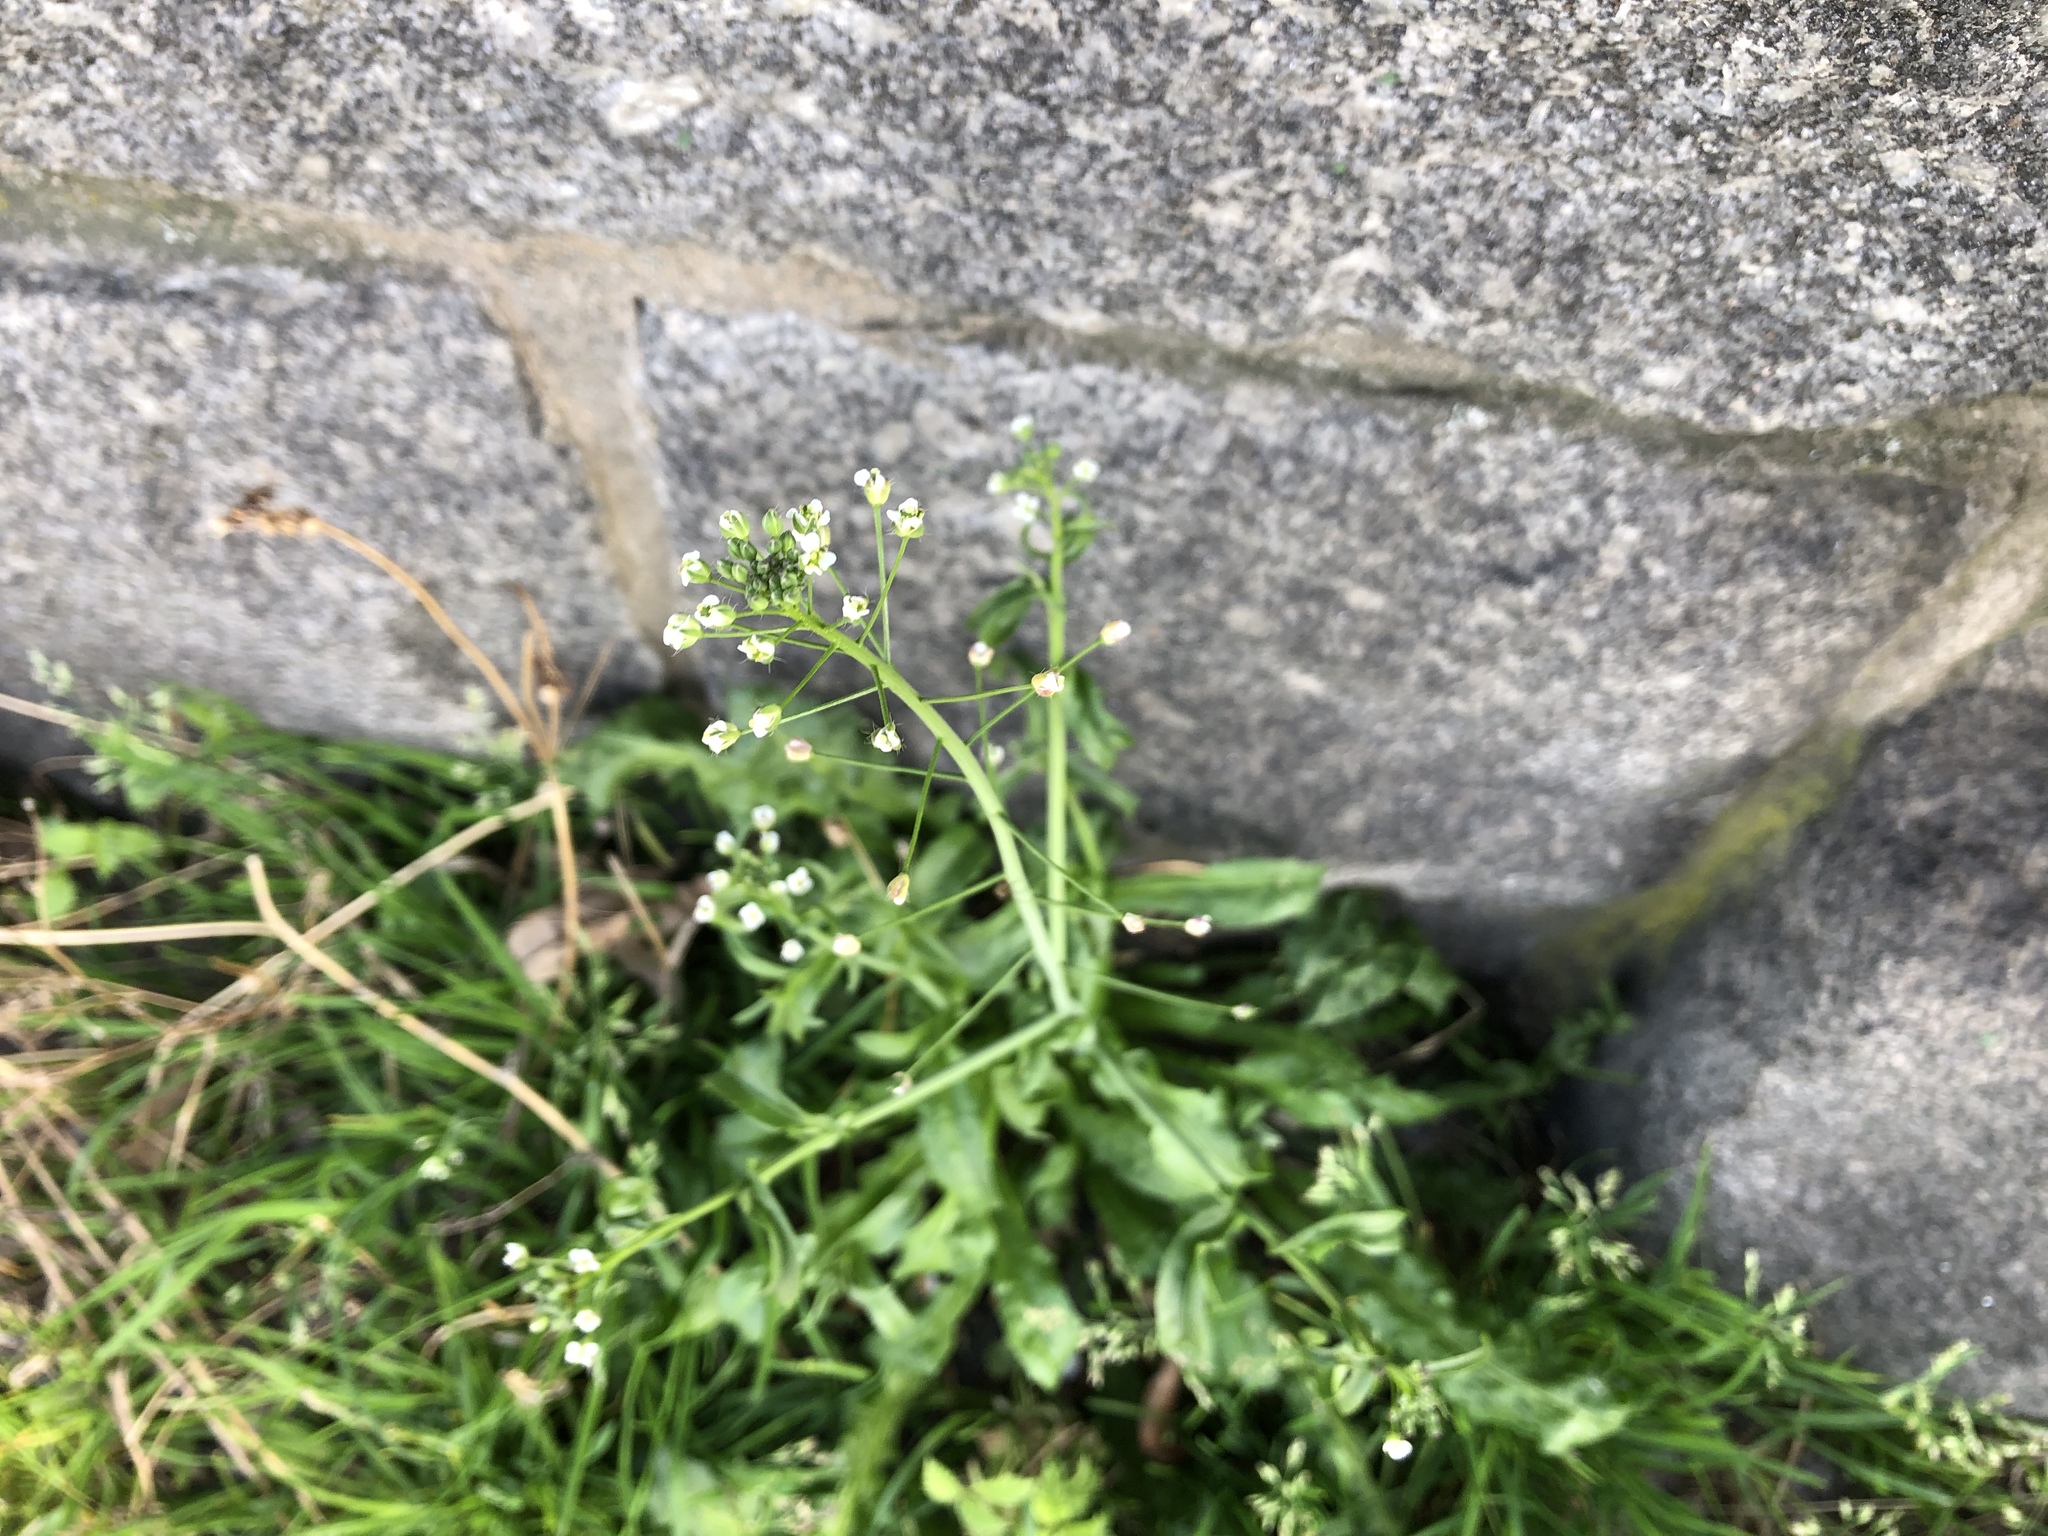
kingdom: Plantae
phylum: Tracheophyta
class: Magnoliopsida
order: Brassicales
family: Brassicaceae
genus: Capsella
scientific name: Capsella bursa-pastoris
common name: Shepherd's purse
